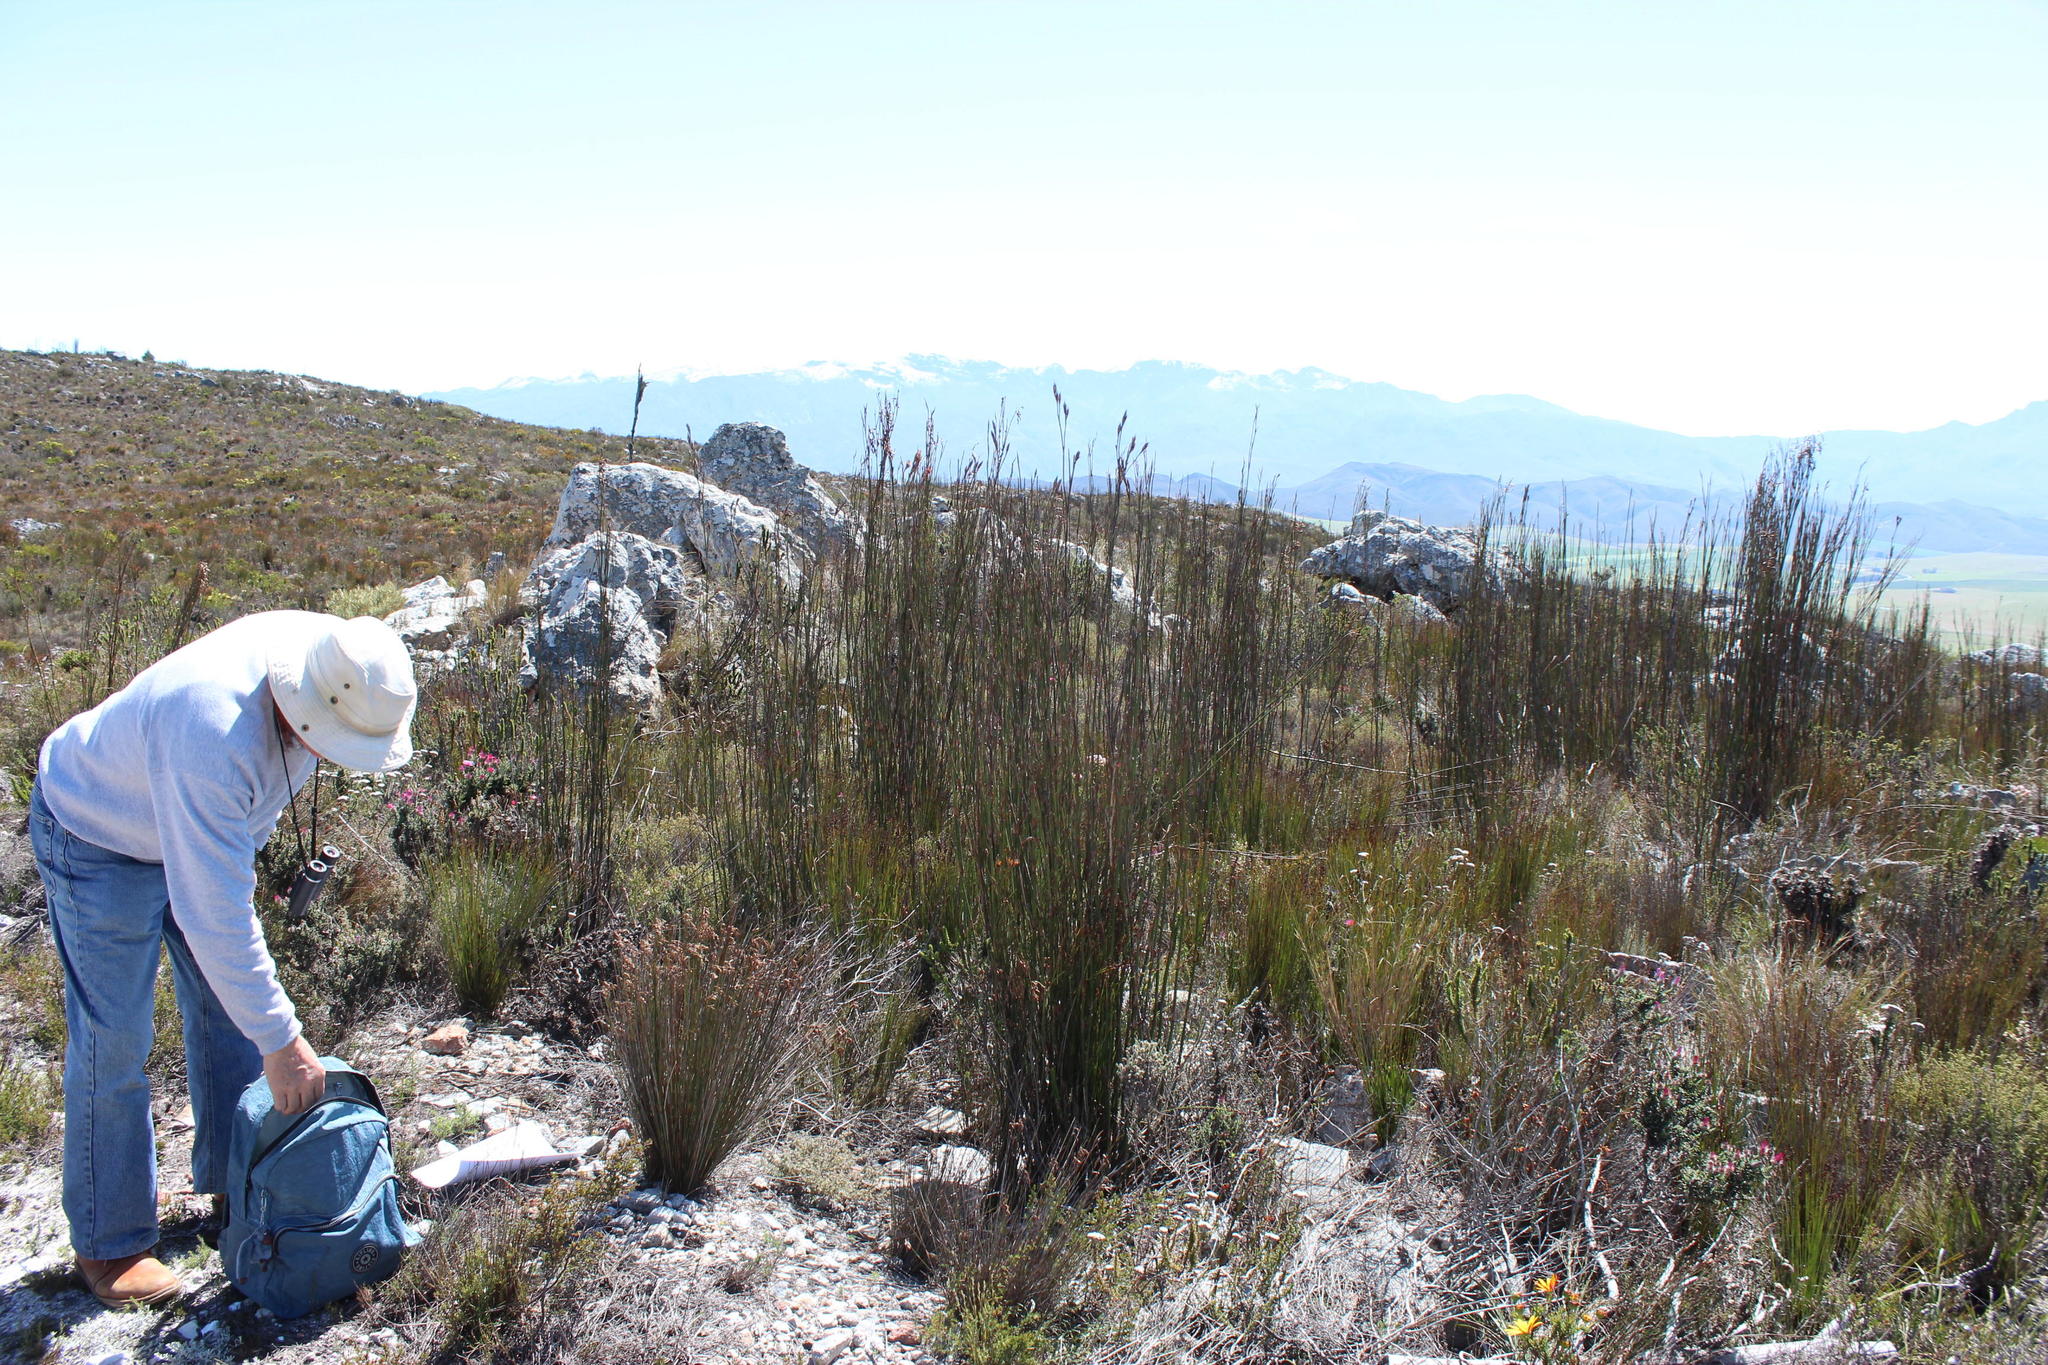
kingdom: Plantae
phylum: Tracheophyta
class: Liliopsida
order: Poales
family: Restionaceae
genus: Restio
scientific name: Restio egregius
